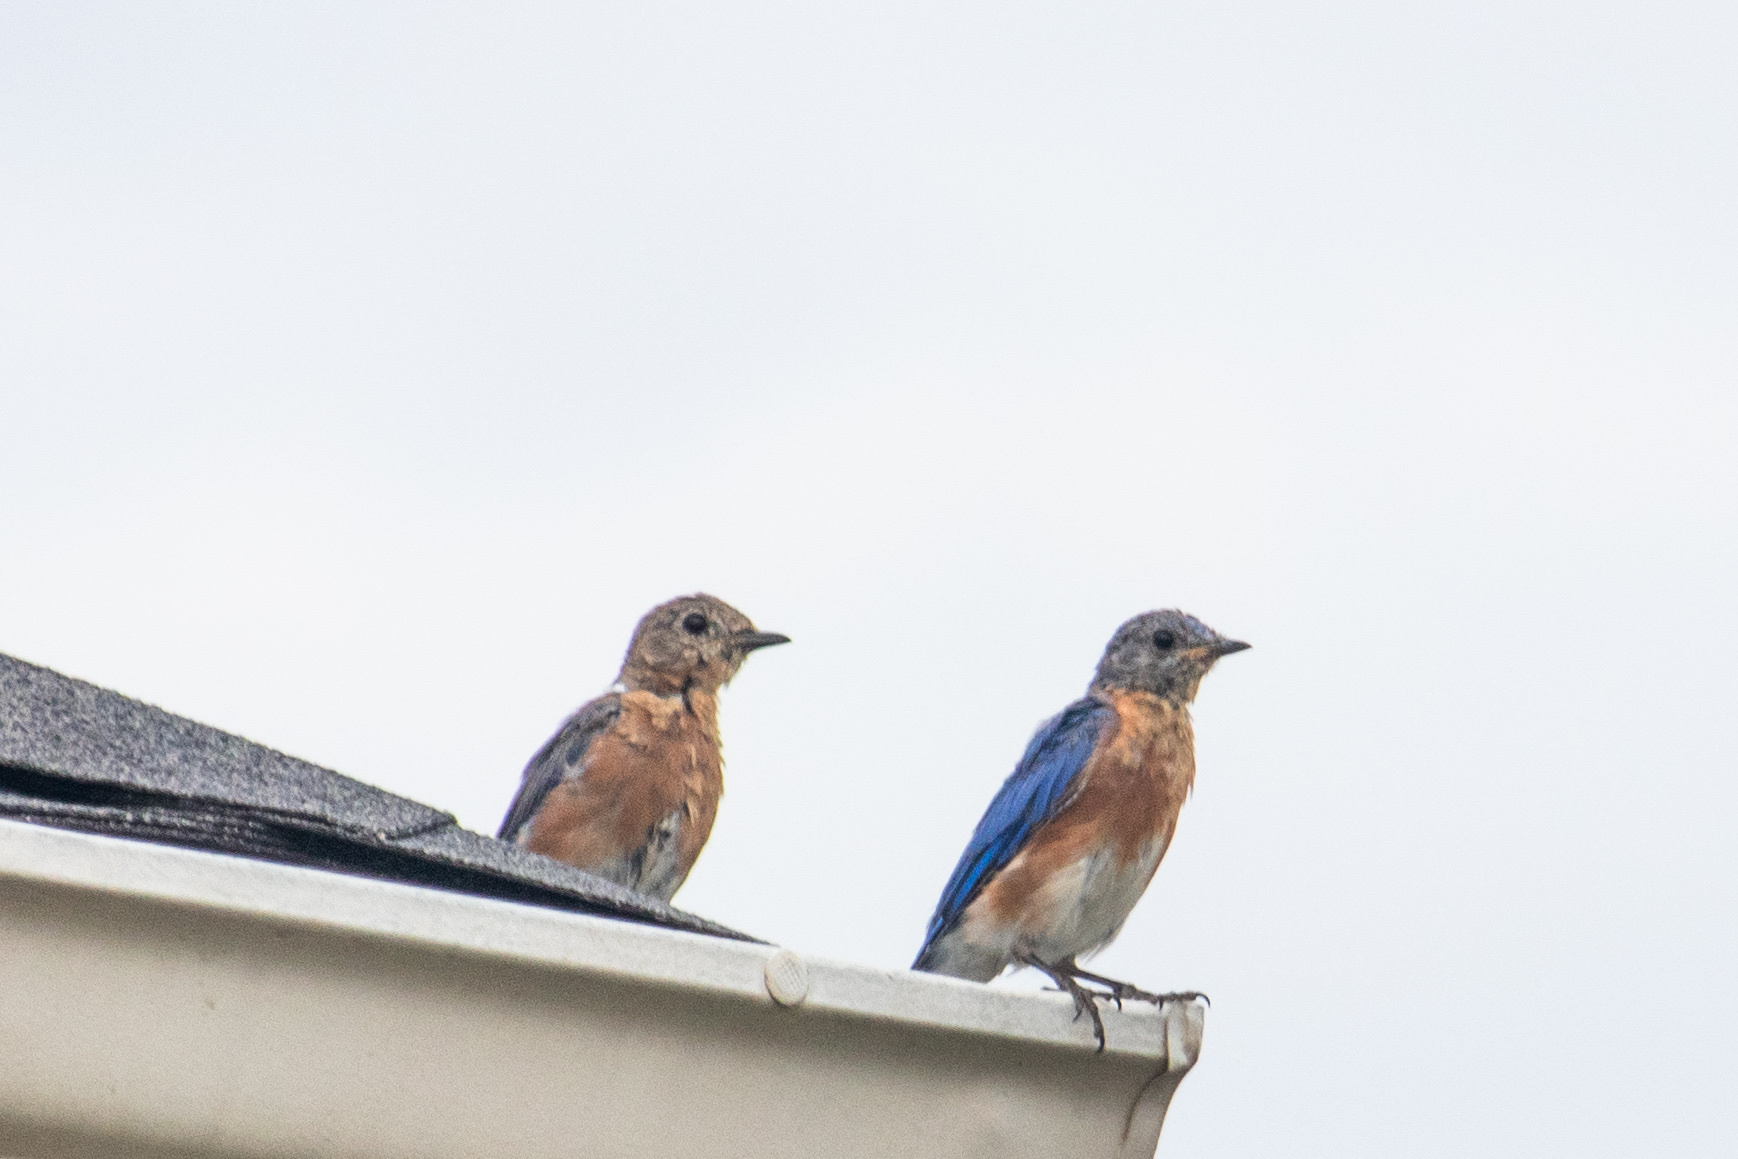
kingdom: Animalia
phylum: Chordata
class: Aves
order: Passeriformes
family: Turdidae
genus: Sialia
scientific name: Sialia sialis
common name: Eastern bluebird
